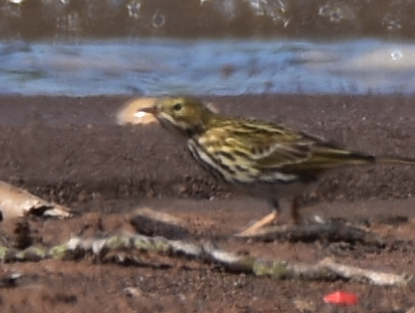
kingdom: Animalia
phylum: Chordata
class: Aves
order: Passeriformes
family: Motacillidae
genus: Anthus
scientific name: Anthus pratensis
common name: Meadow pipit
